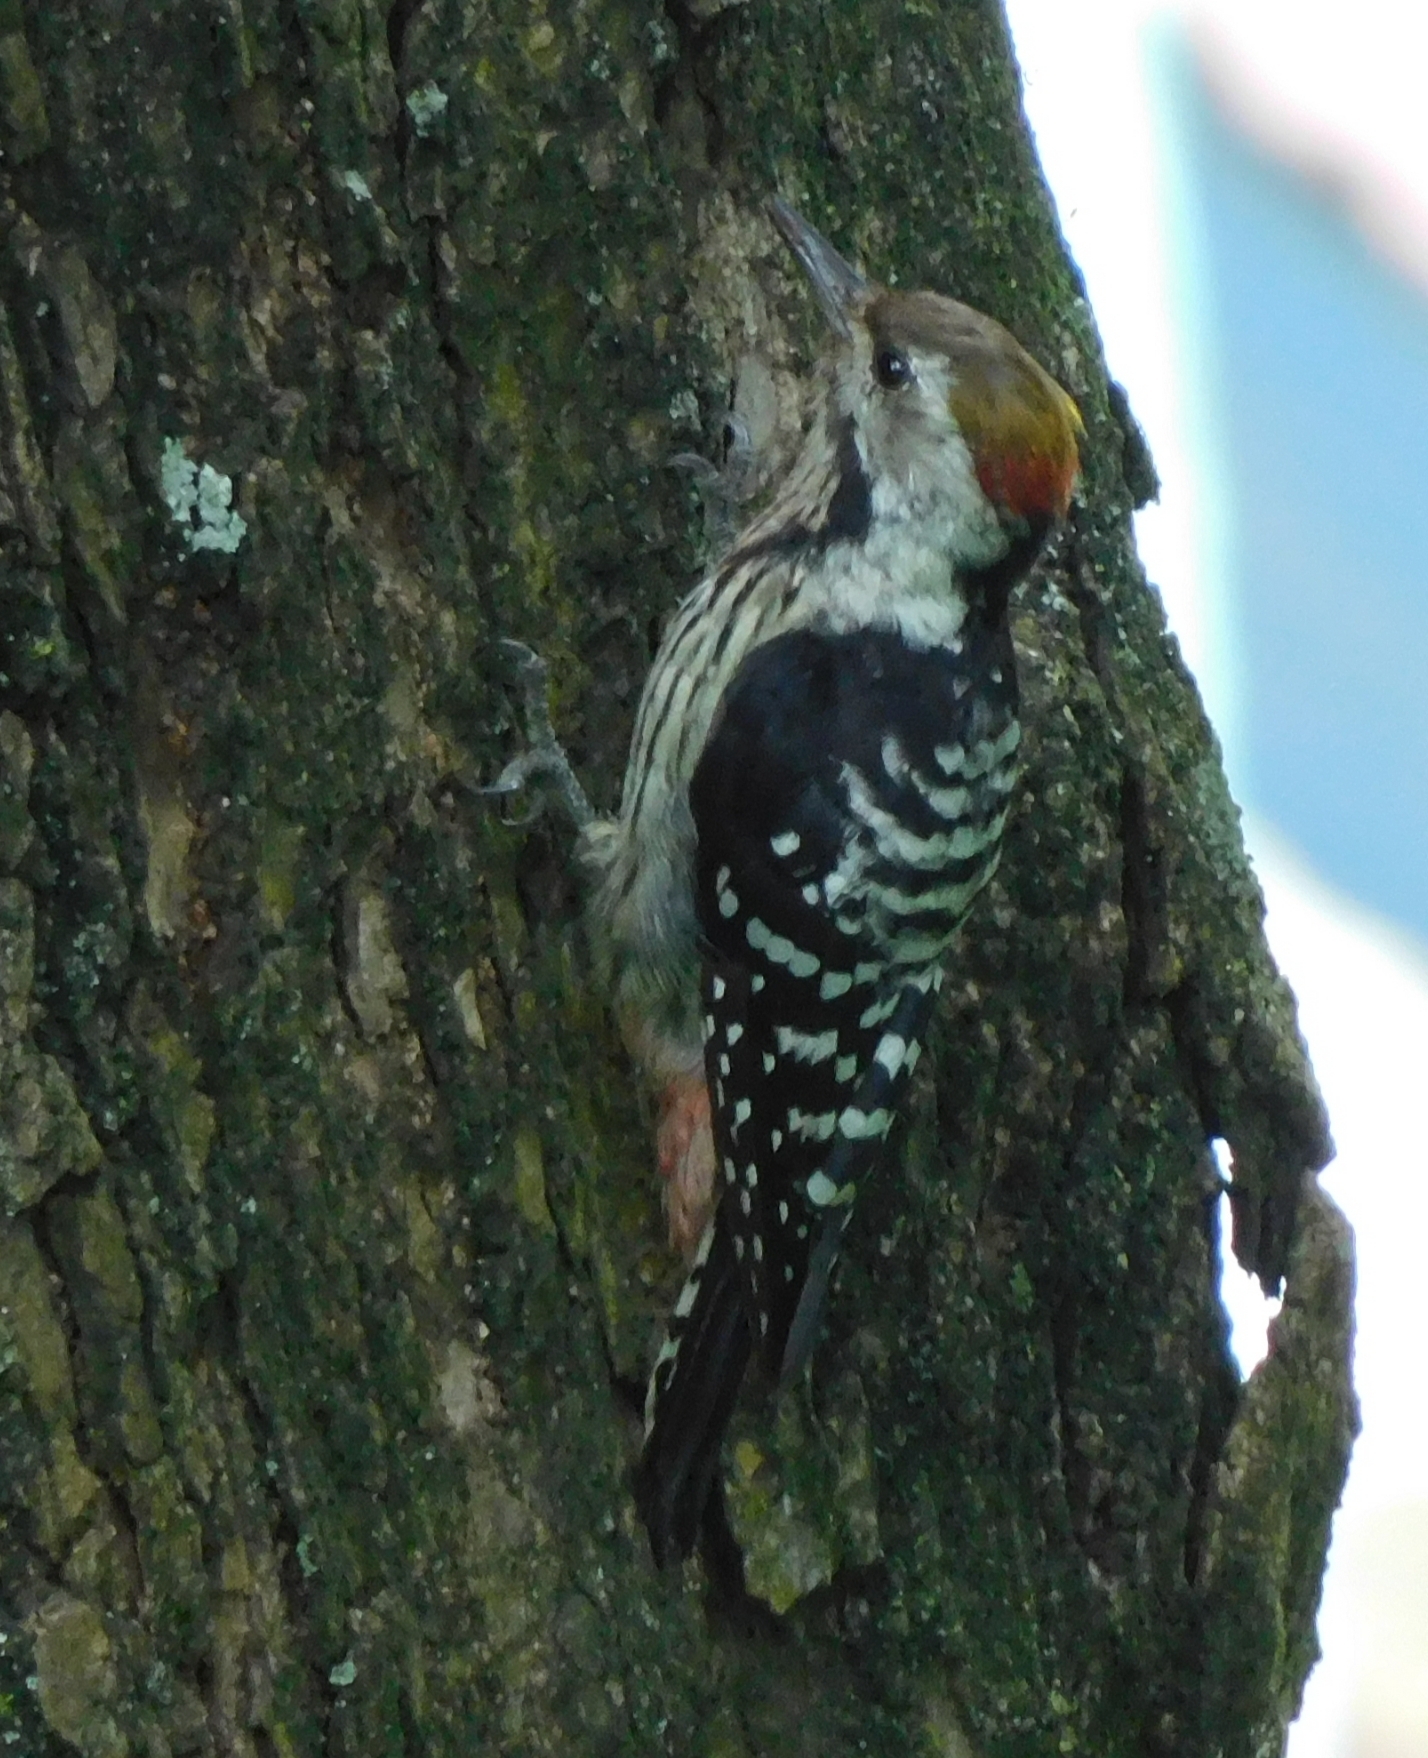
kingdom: Animalia
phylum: Chordata
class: Aves
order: Piciformes
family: Picidae
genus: Dendrocoptes
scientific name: Dendrocoptes auriceps
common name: Brown-fronted woodpecker
